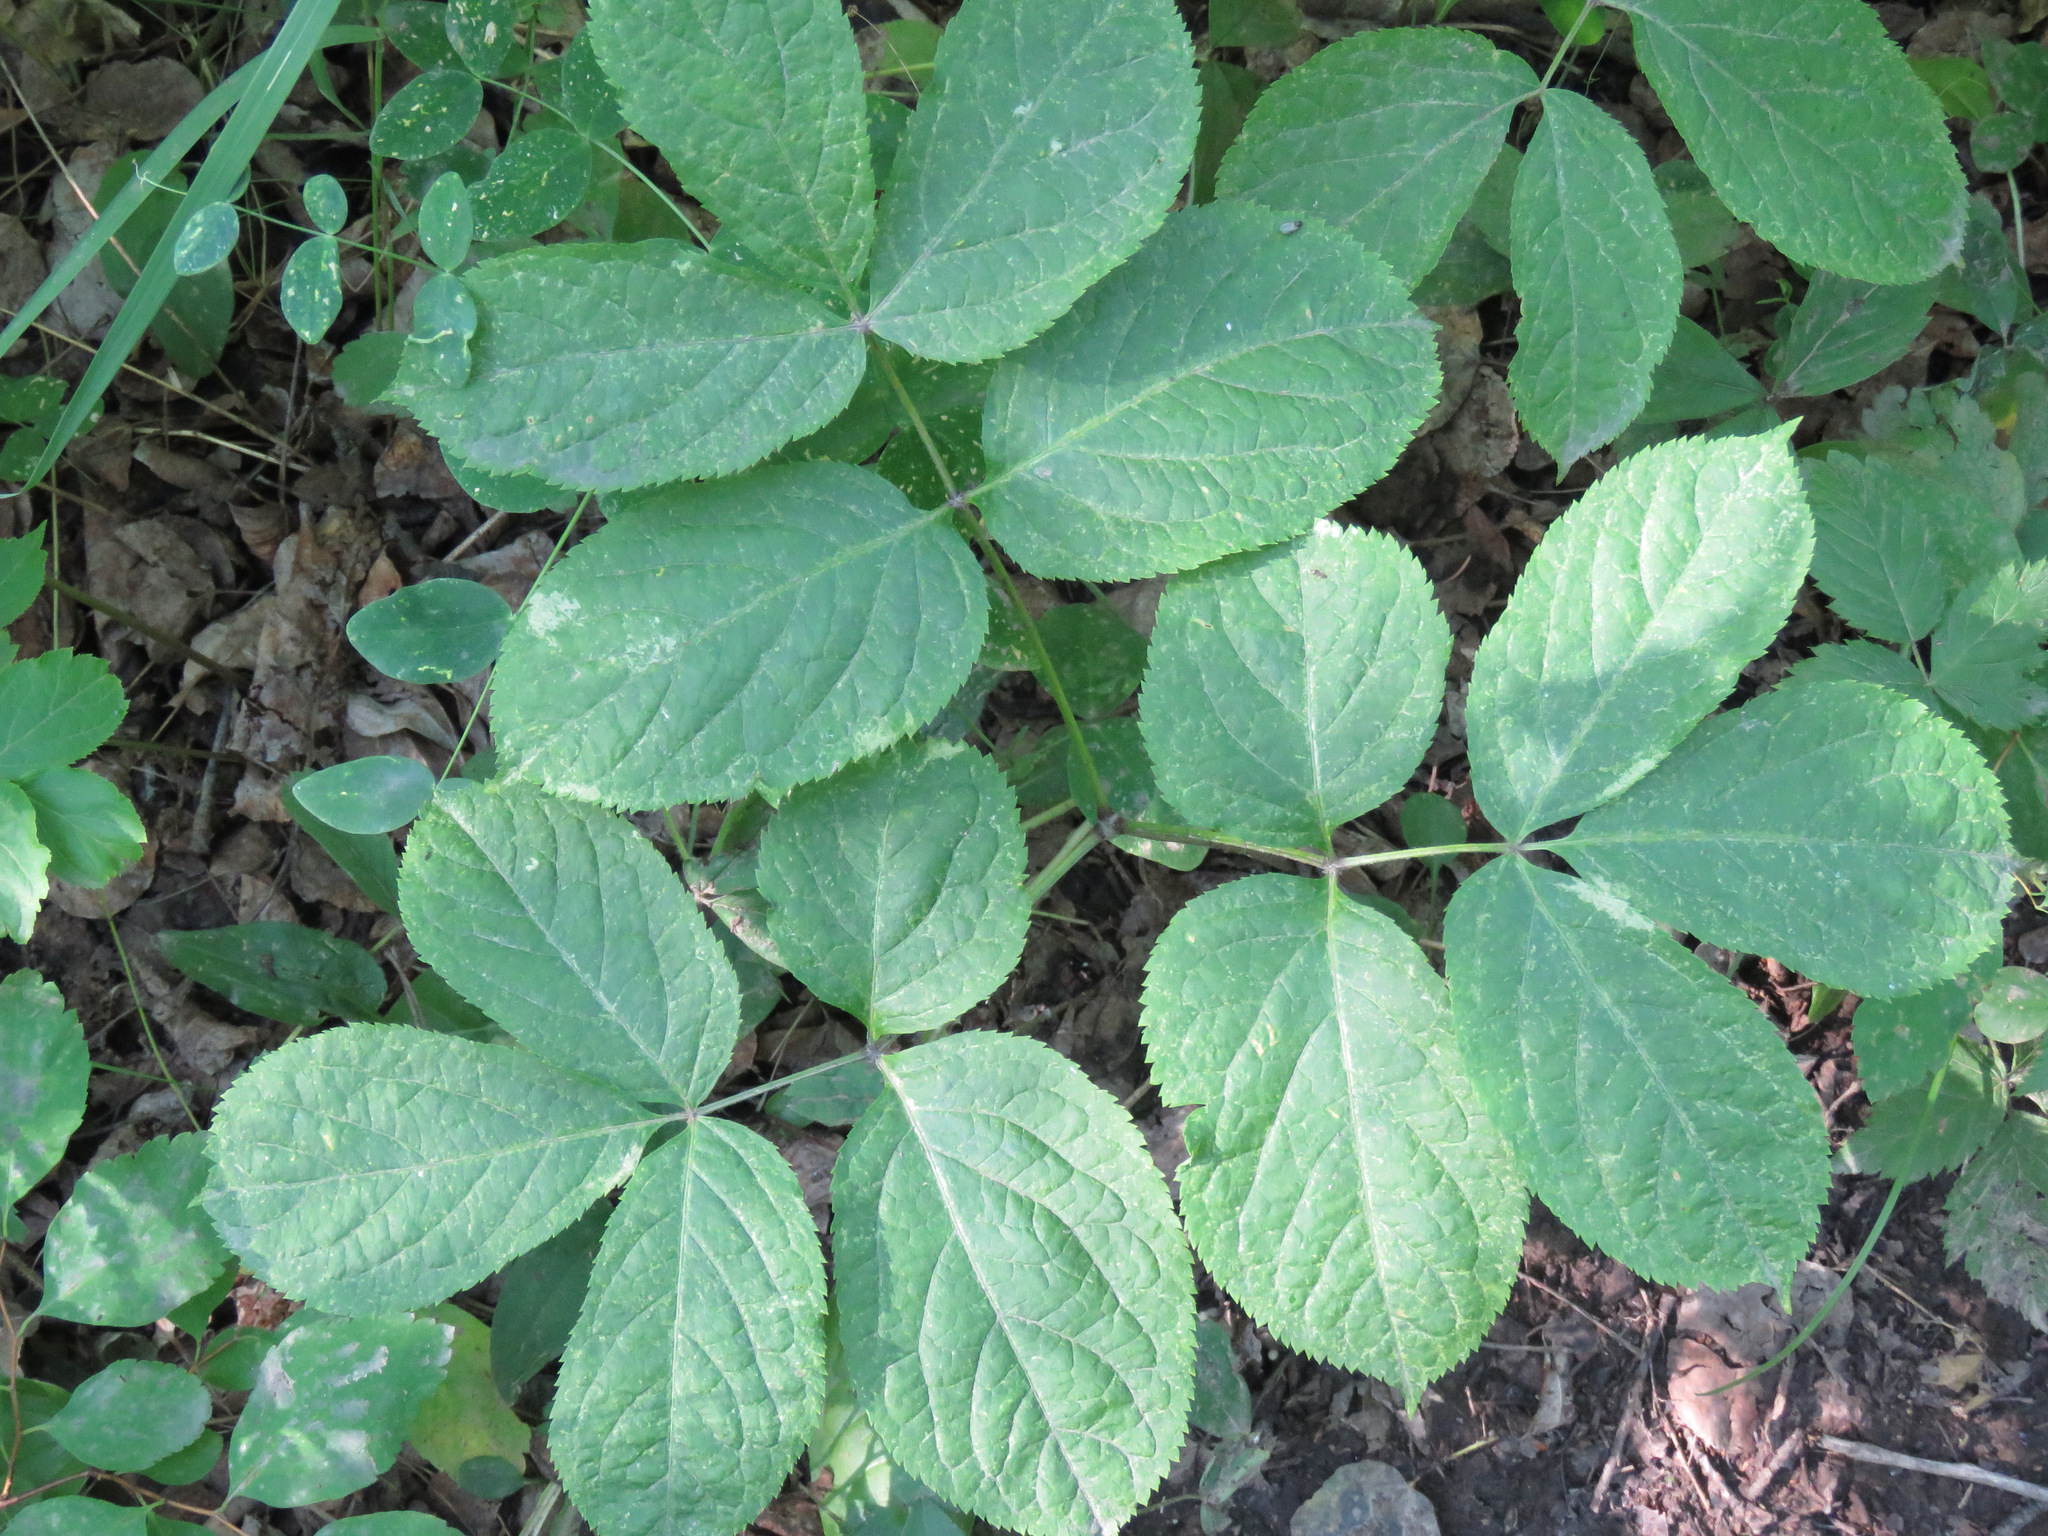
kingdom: Plantae
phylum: Tracheophyta
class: Magnoliopsida
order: Apiales
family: Araliaceae
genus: Aralia
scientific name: Aralia nudicaulis
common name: Wild sarsaparilla
